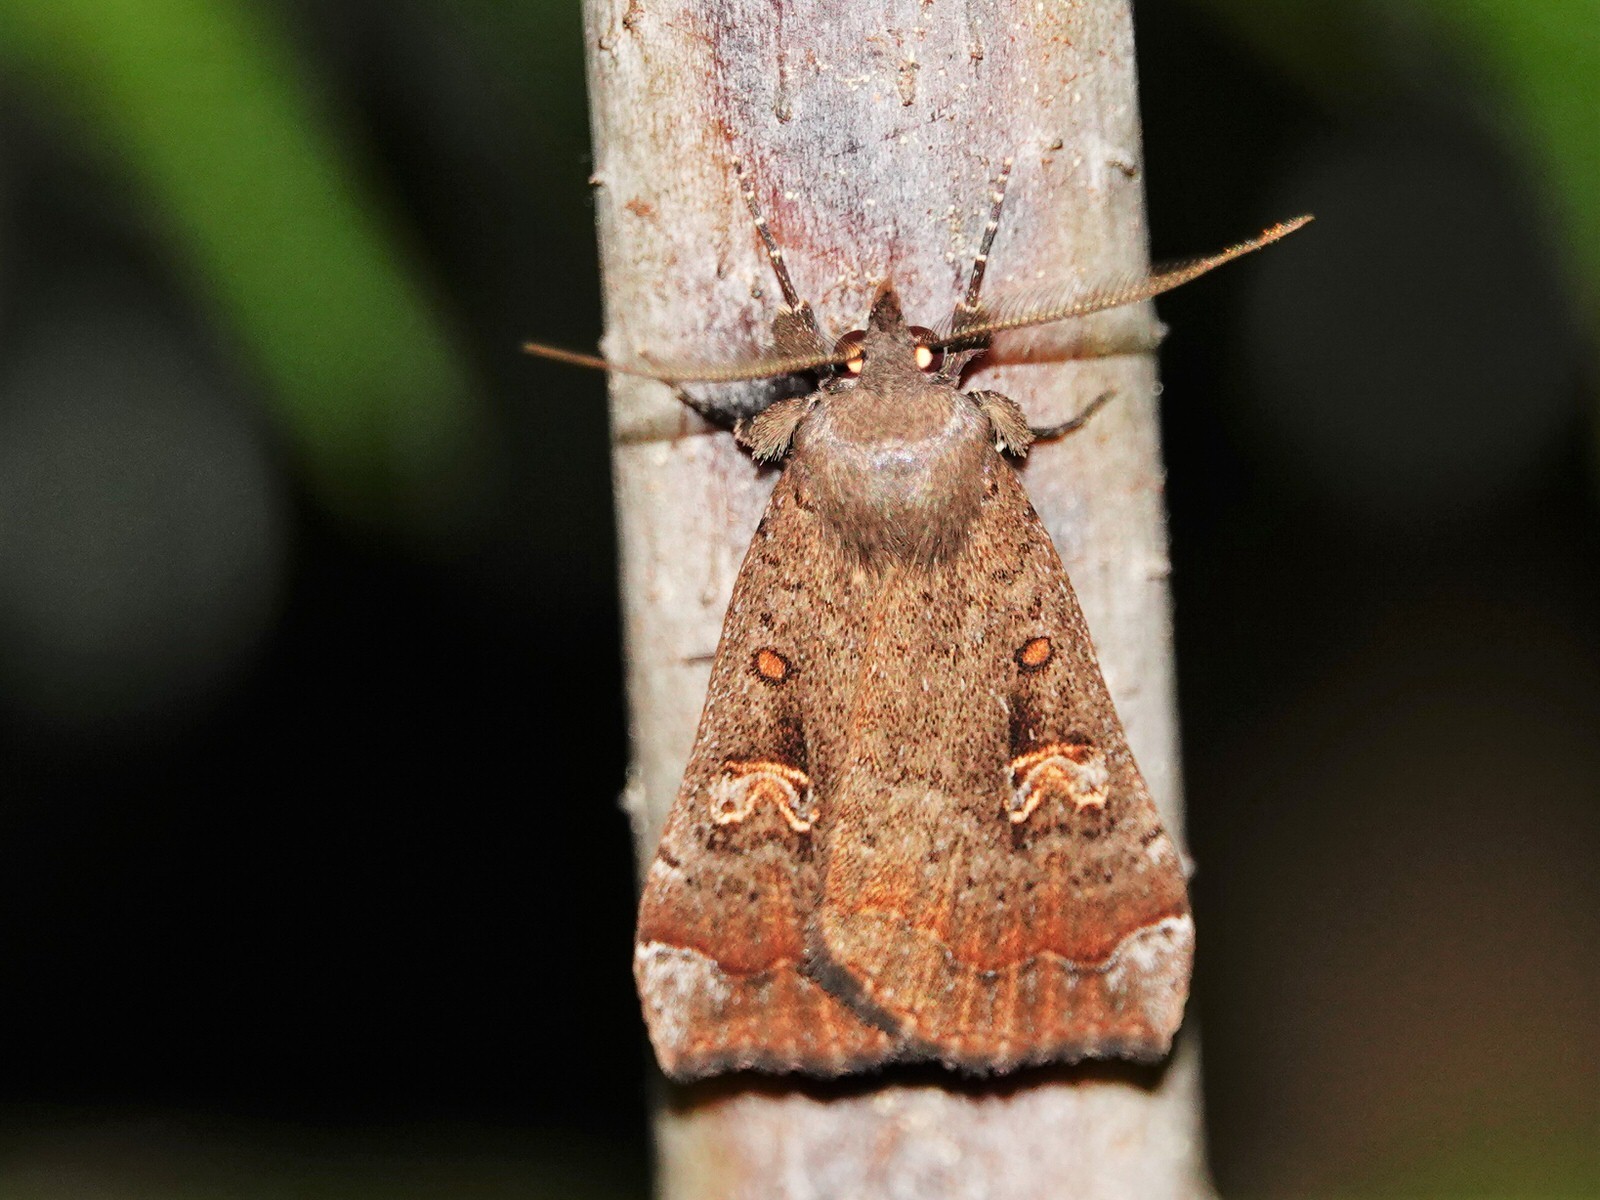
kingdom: Animalia
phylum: Arthropoda
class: Insecta
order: Lepidoptera
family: Erebidae
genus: Rhapsa
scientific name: Rhapsa scotosialis
